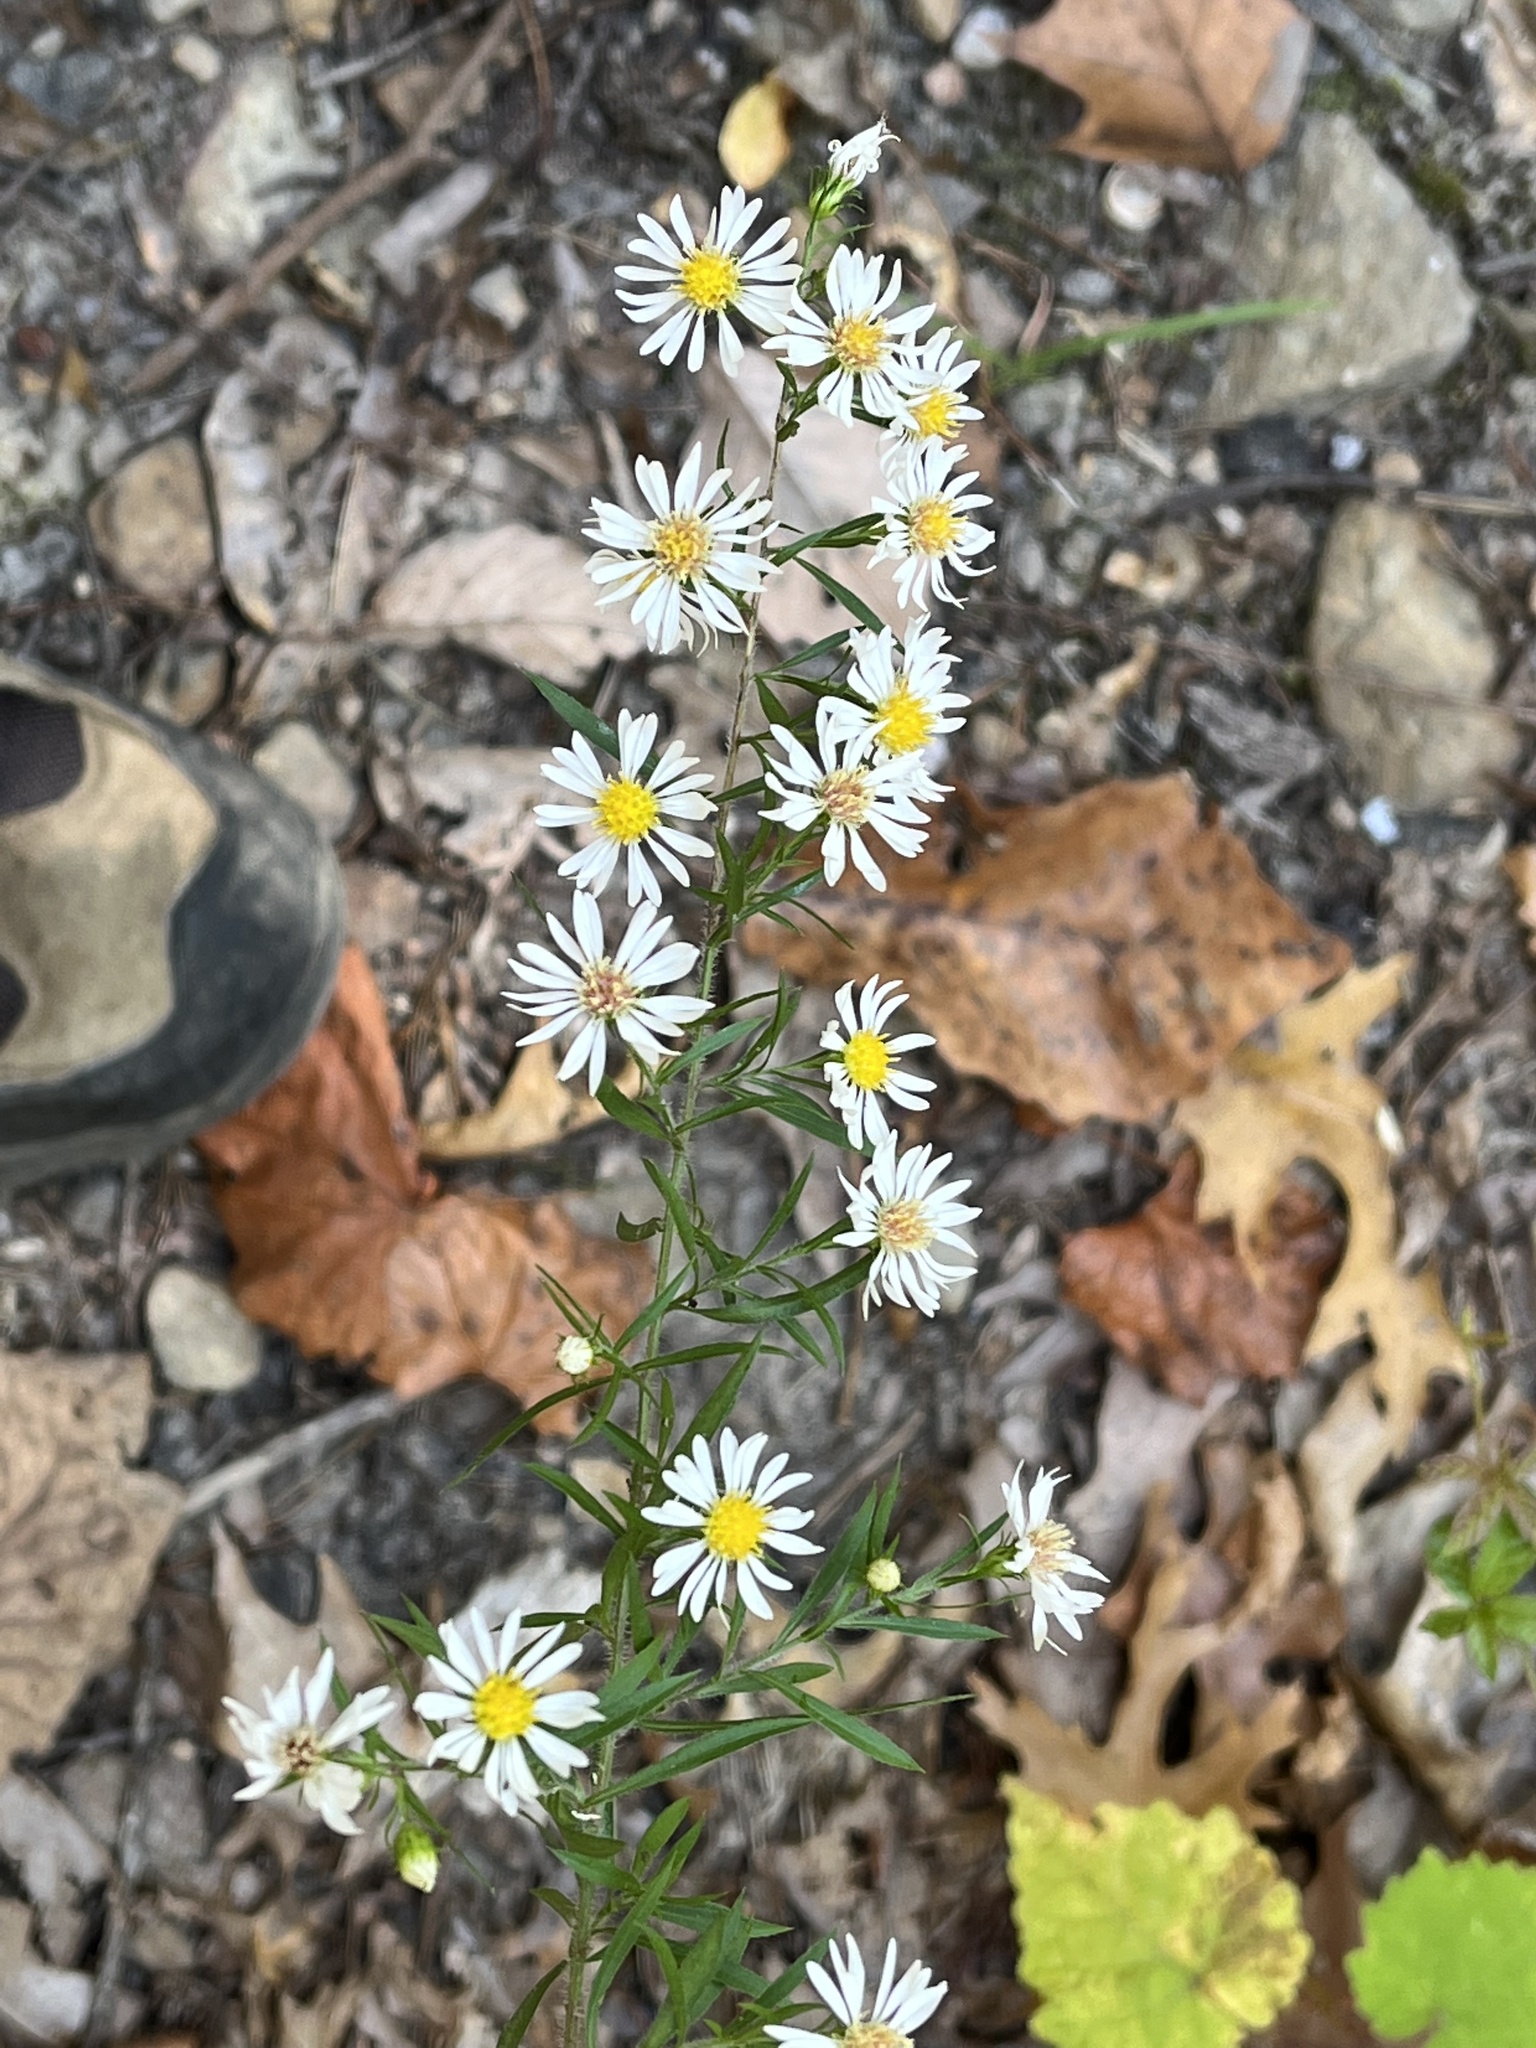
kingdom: Plantae
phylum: Tracheophyta
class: Magnoliopsida
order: Asterales
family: Asteraceae
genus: Symphyotrichum
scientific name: Symphyotrichum pilosum
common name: Awl aster
